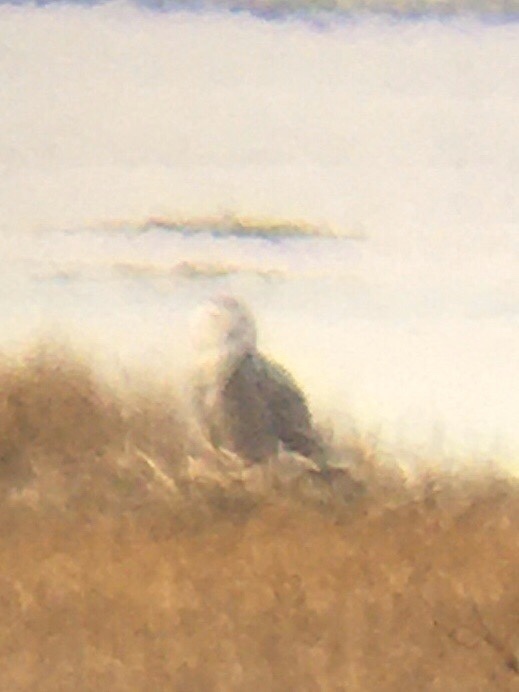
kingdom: Animalia
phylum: Chordata
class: Aves
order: Strigiformes
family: Strigidae
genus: Bubo
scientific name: Bubo scandiacus
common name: Snowy owl
